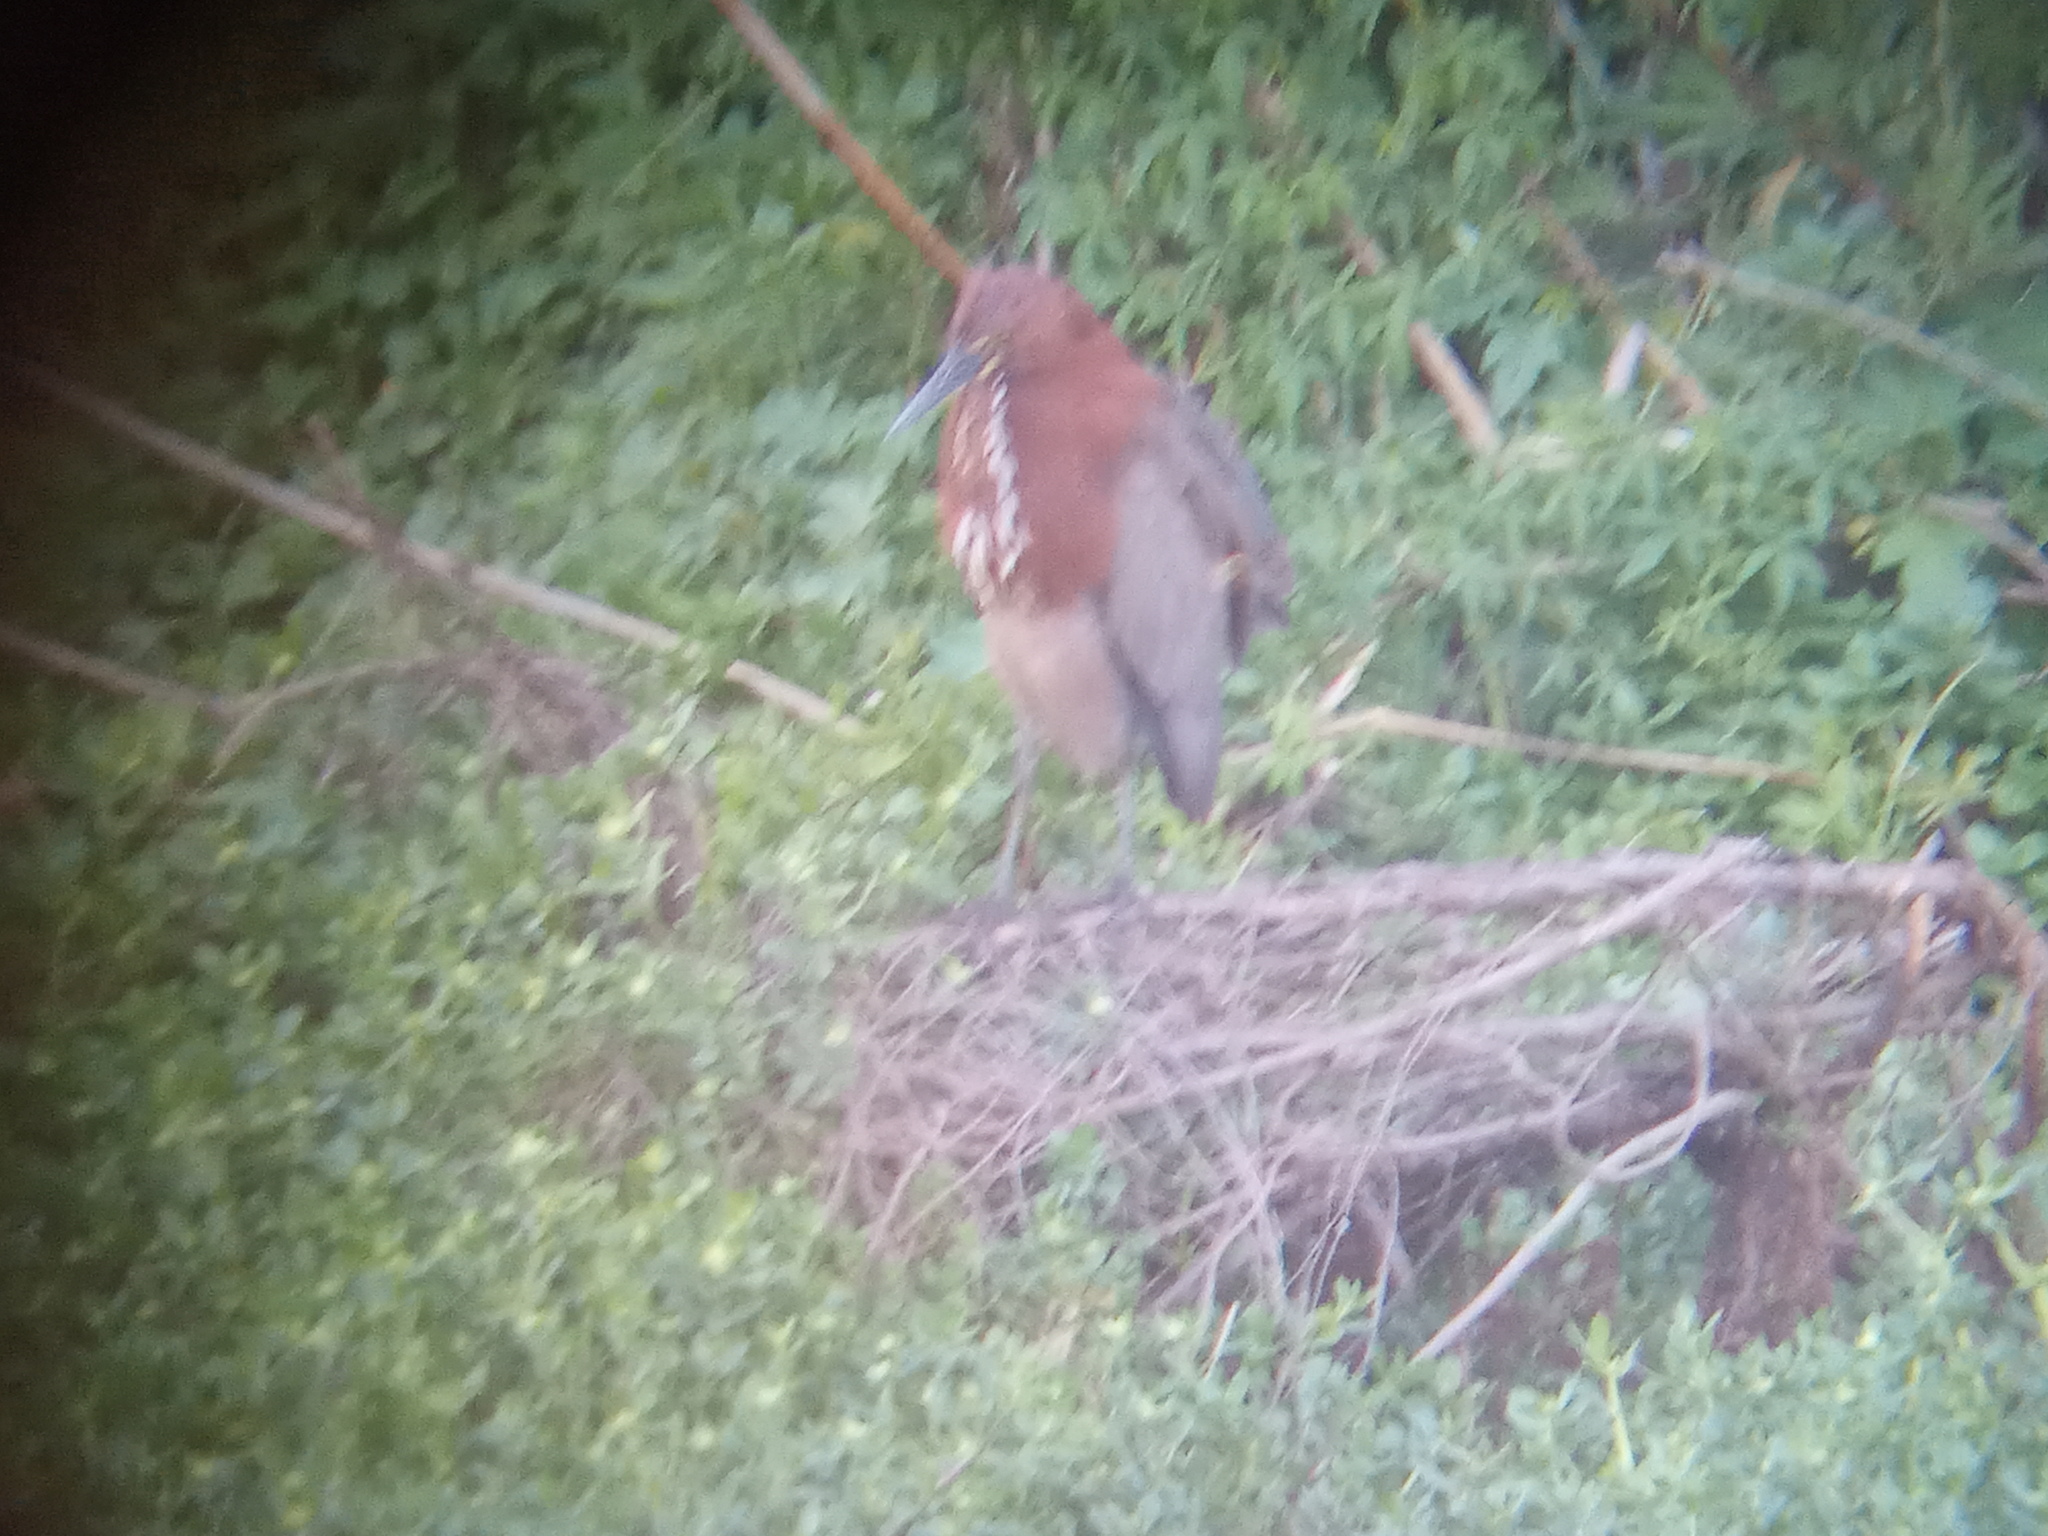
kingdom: Animalia
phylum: Chordata
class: Aves
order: Pelecaniformes
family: Ardeidae
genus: Tigrisoma
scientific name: Tigrisoma lineatum
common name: Rufescent tiger-heron
